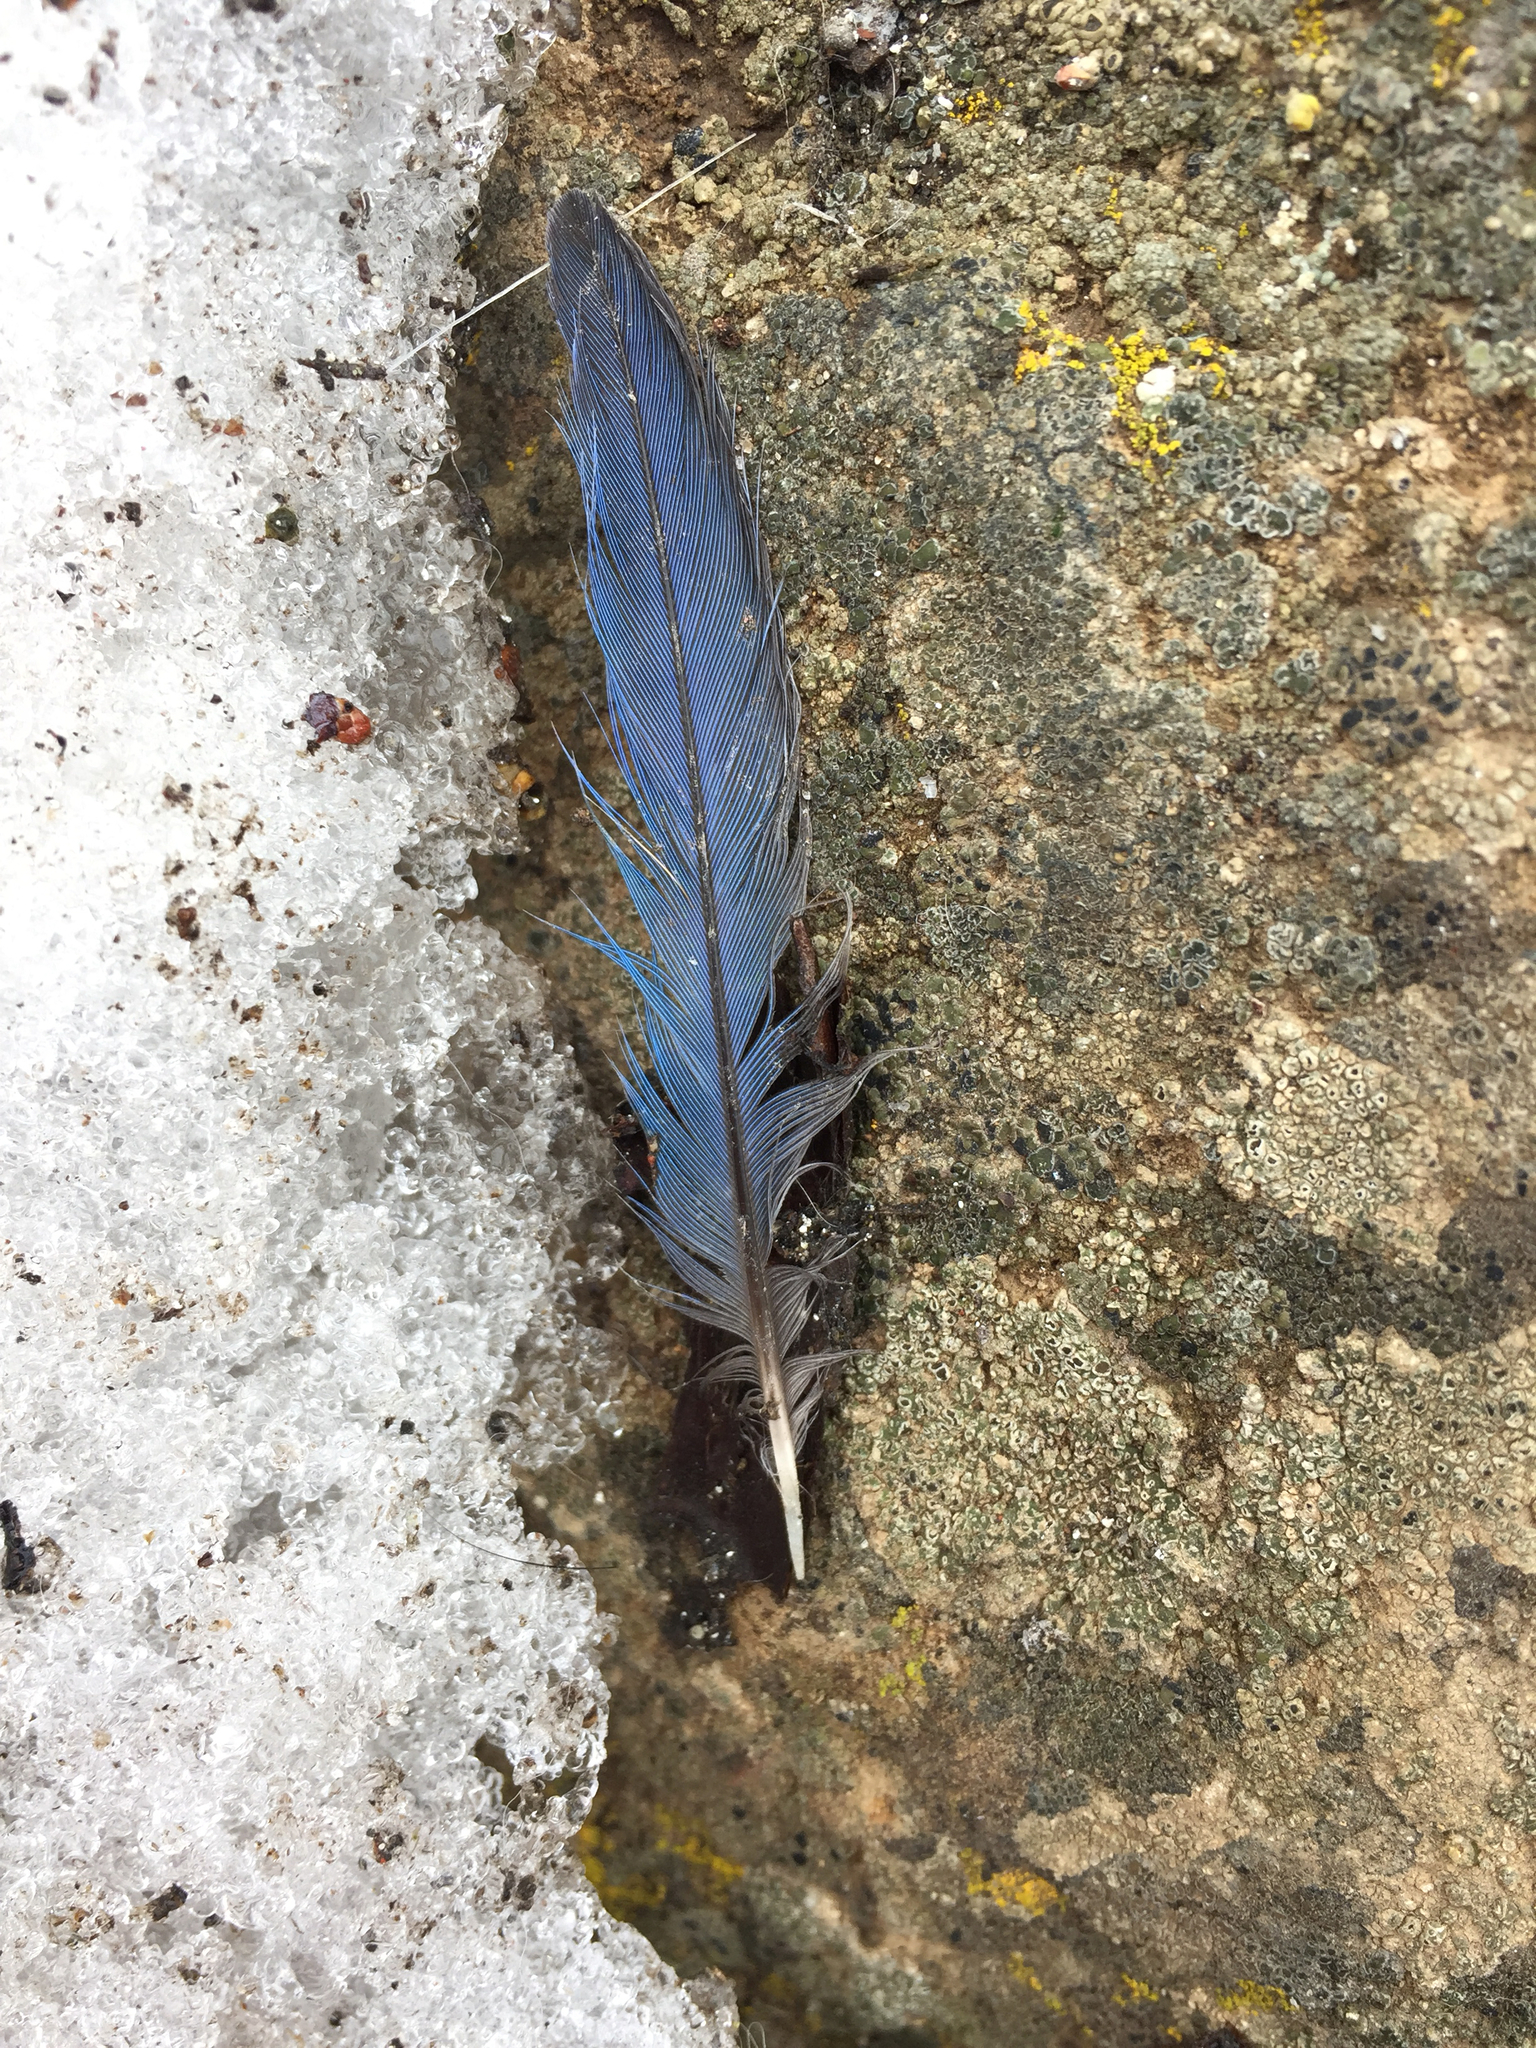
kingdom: Animalia
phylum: Chordata
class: Aves
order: Passeriformes
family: Corvidae
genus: Cyanocitta
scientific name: Cyanocitta stelleri
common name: Steller's jay
